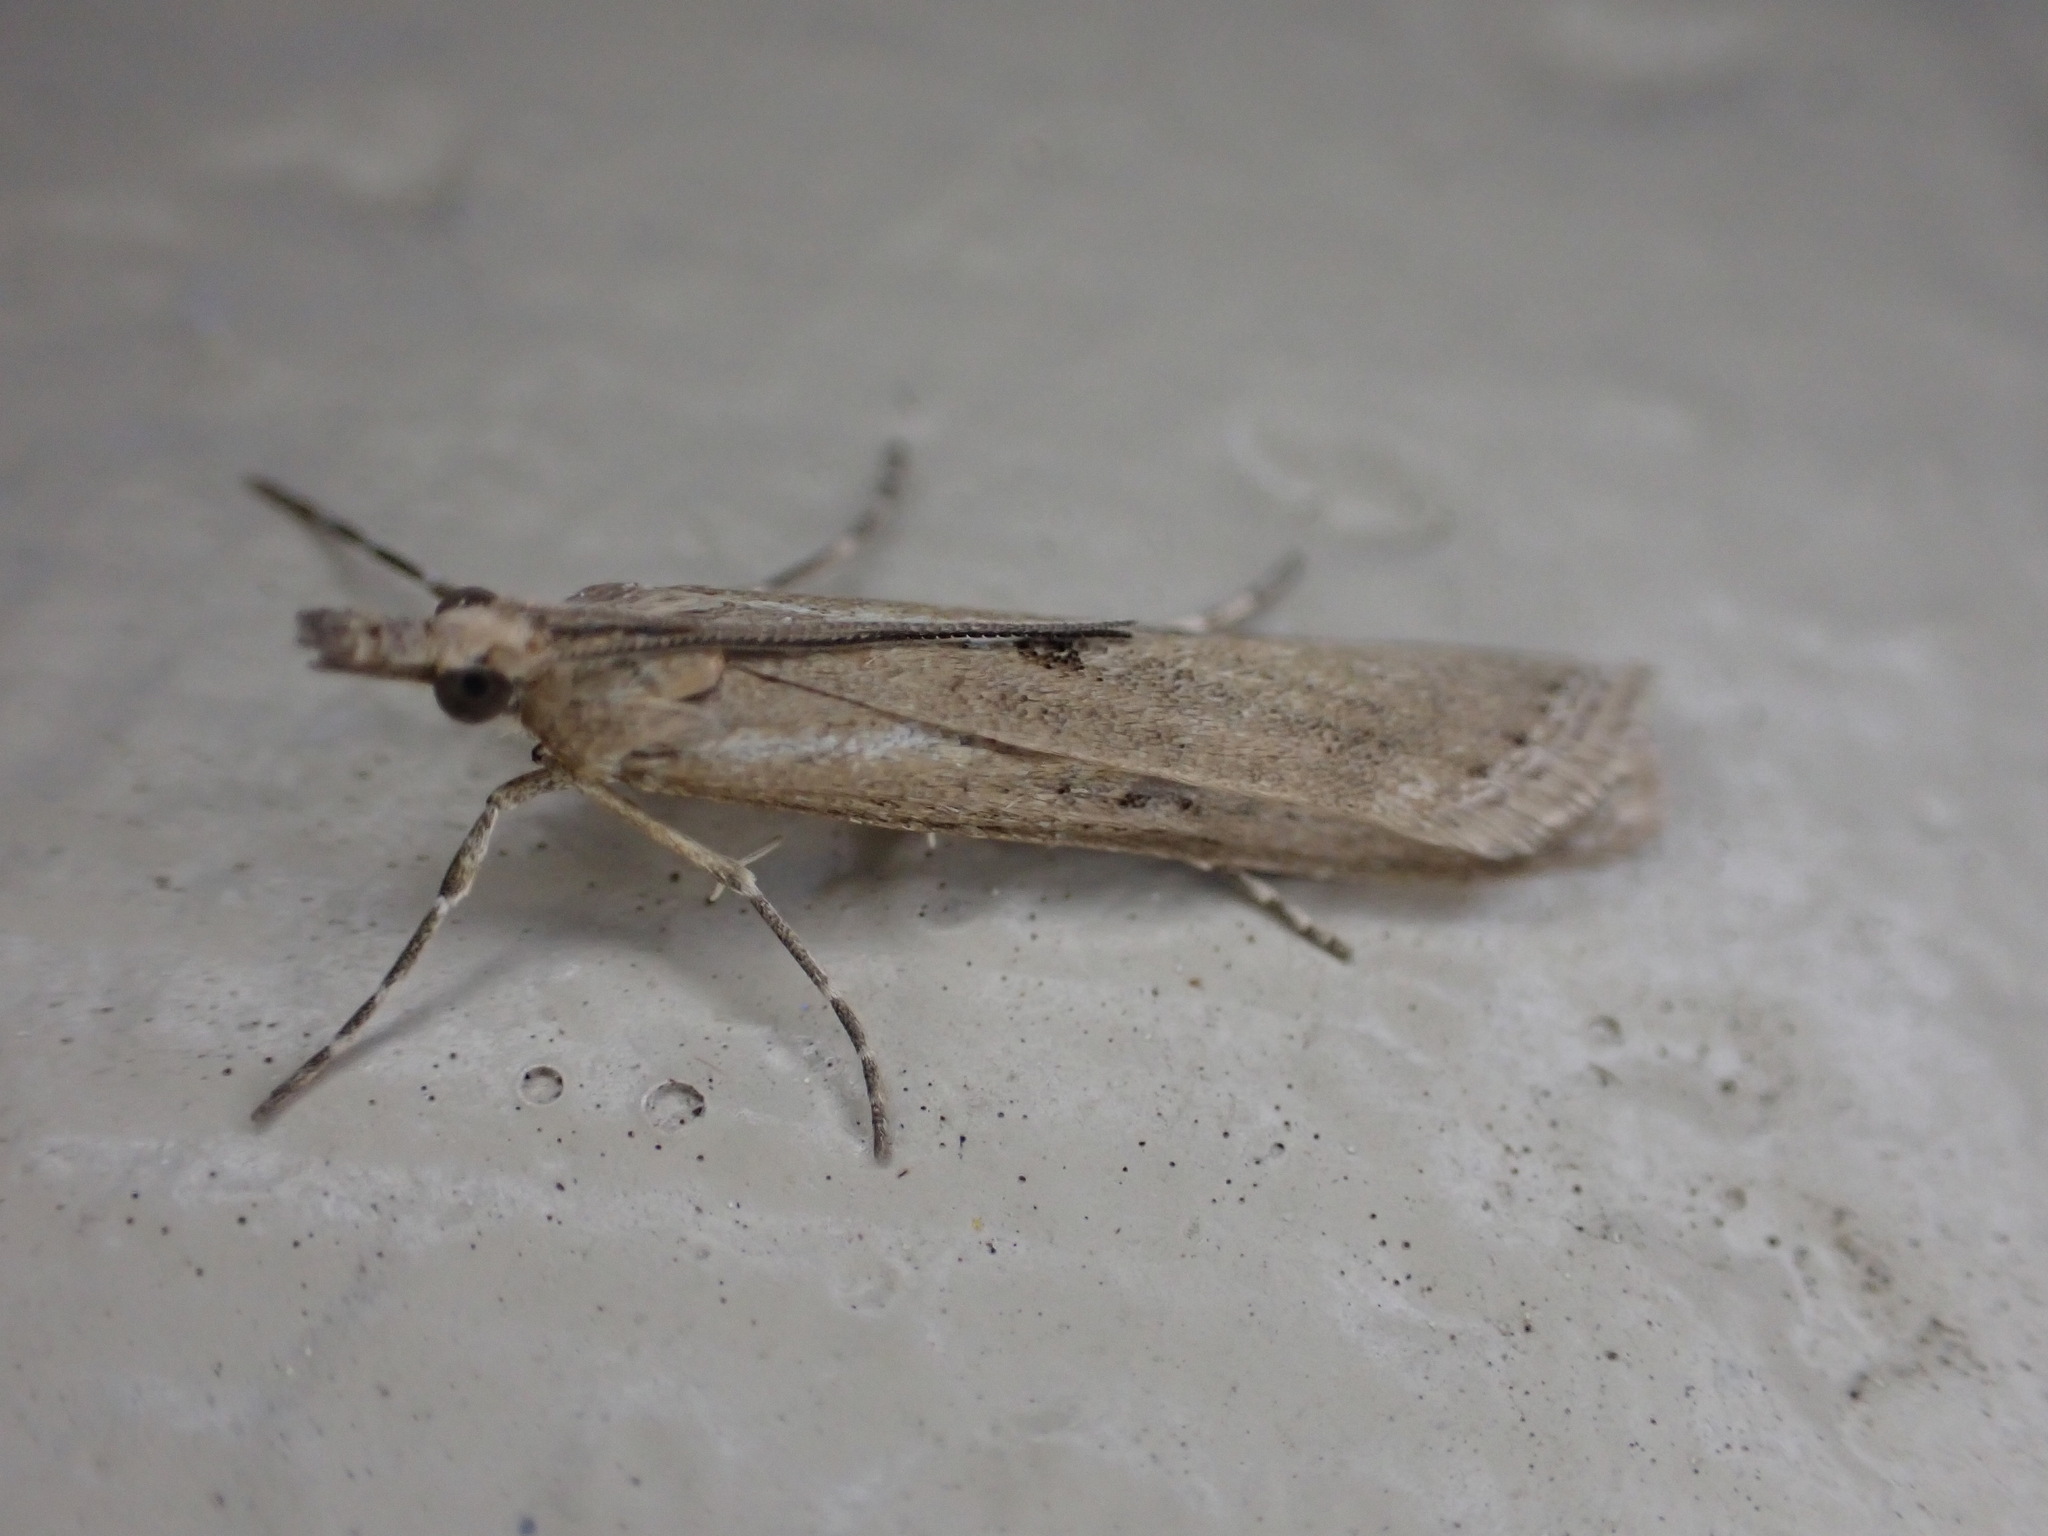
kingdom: Animalia
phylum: Arthropoda
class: Insecta
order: Lepidoptera
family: Crambidae
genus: Eudonia
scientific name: Eudonia leptalea
